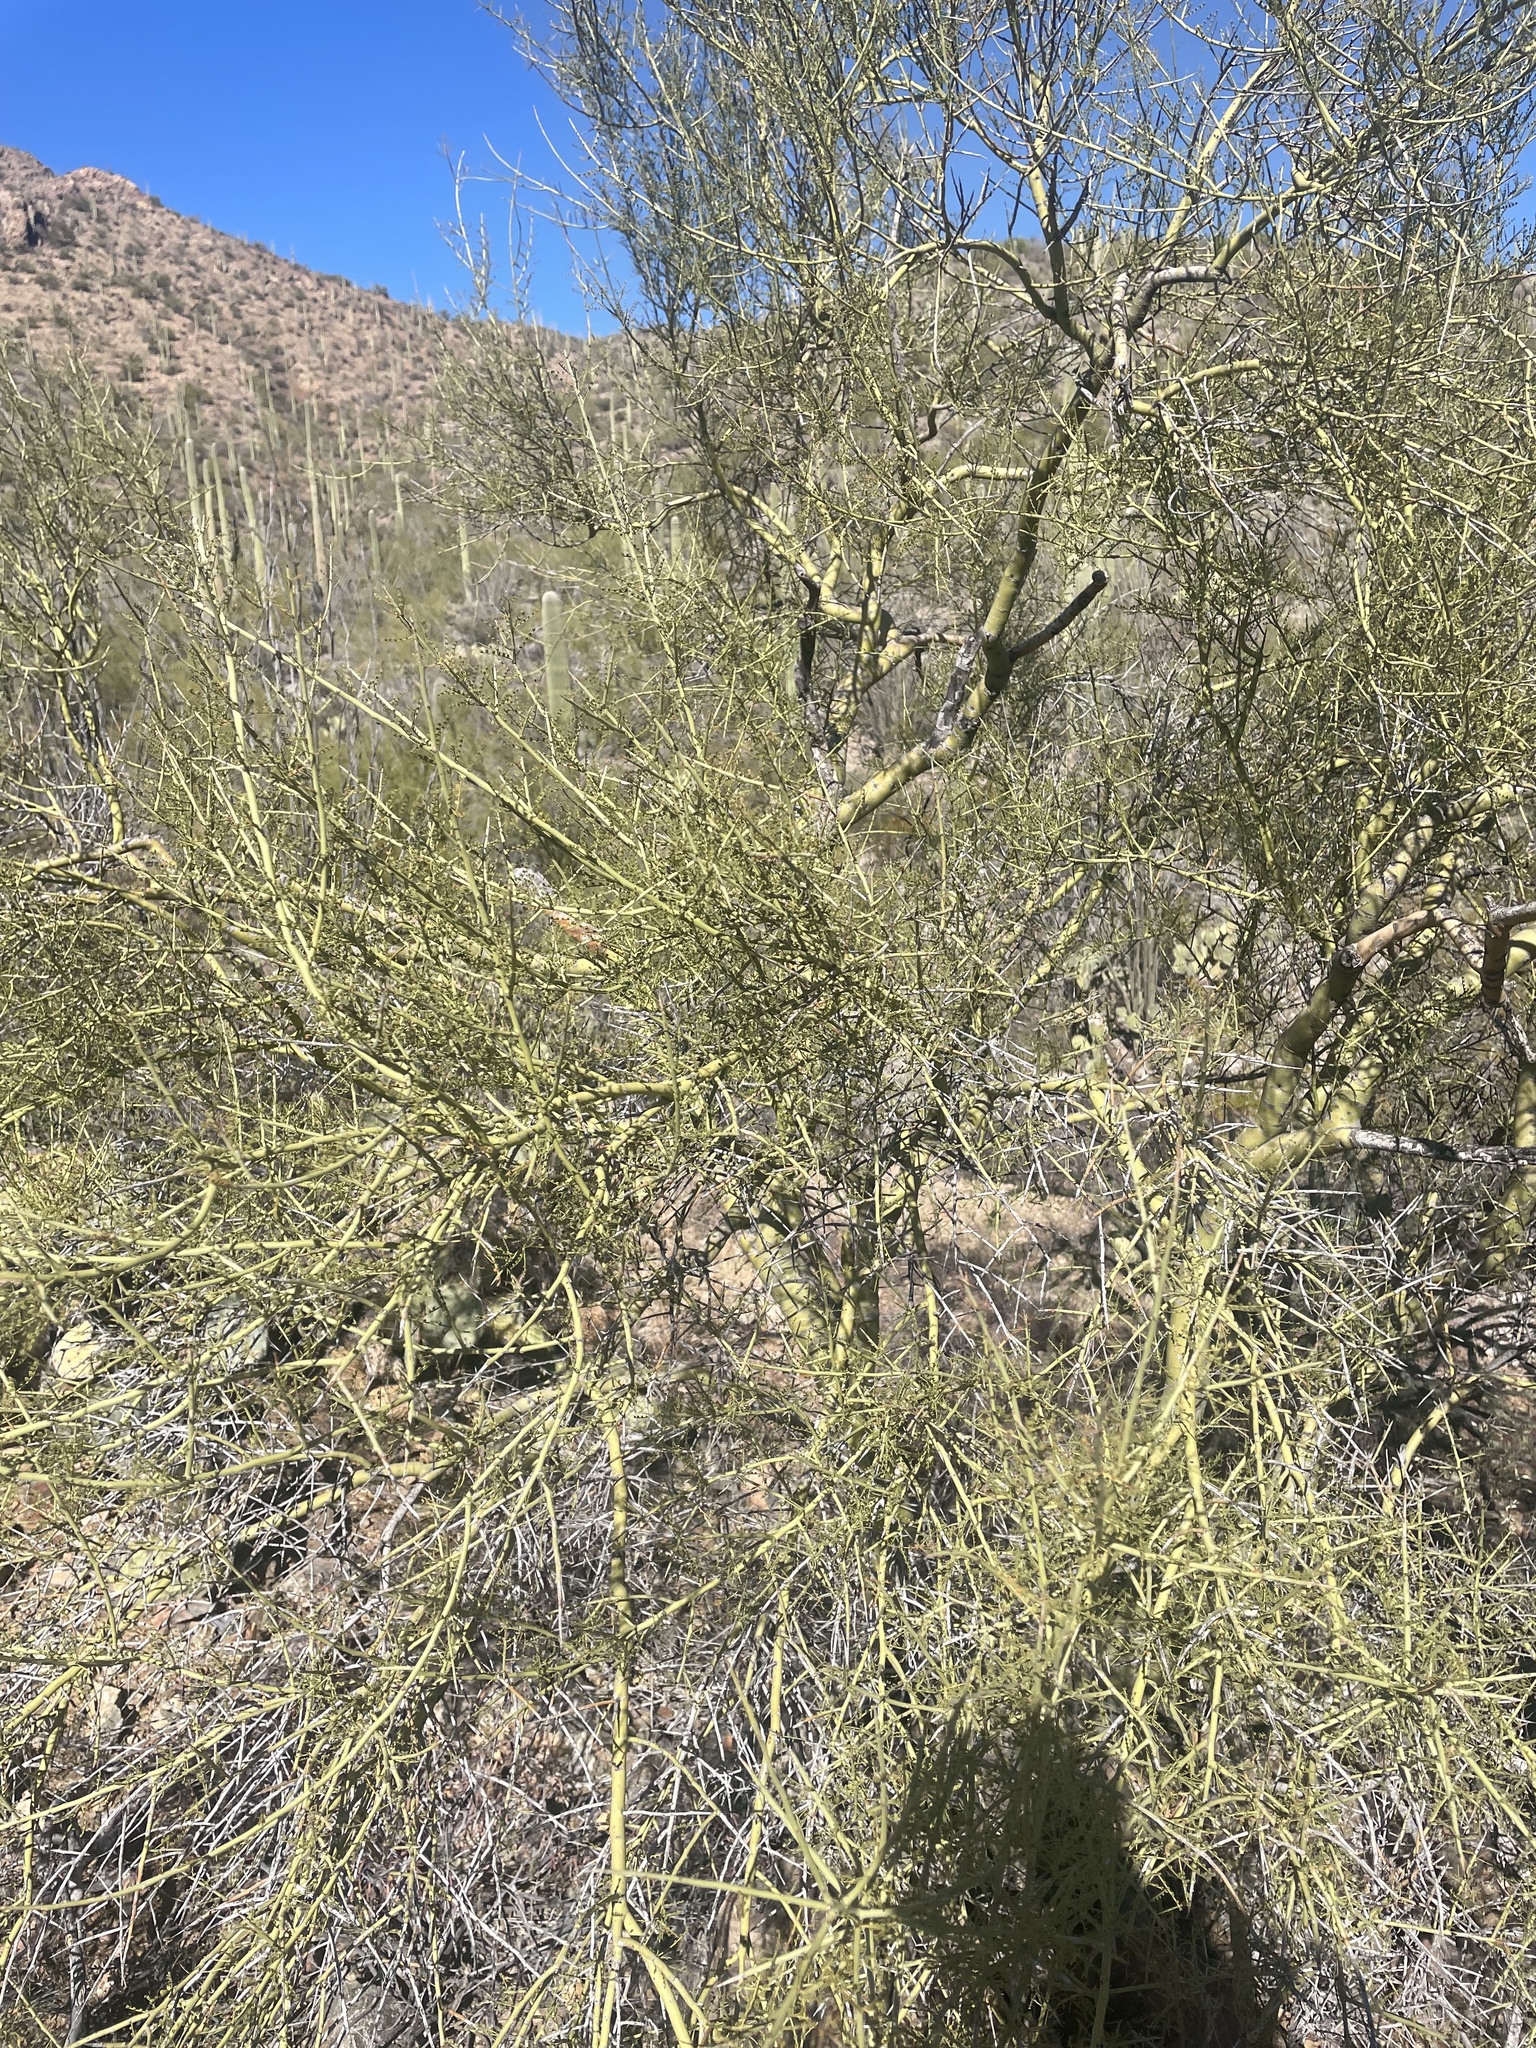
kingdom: Plantae
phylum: Tracheophyta
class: Magnoliopsida
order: Fabales
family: Fabaceae
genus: Parkinsonia
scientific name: Parkinsonia microphylla
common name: Yellow paloverde
